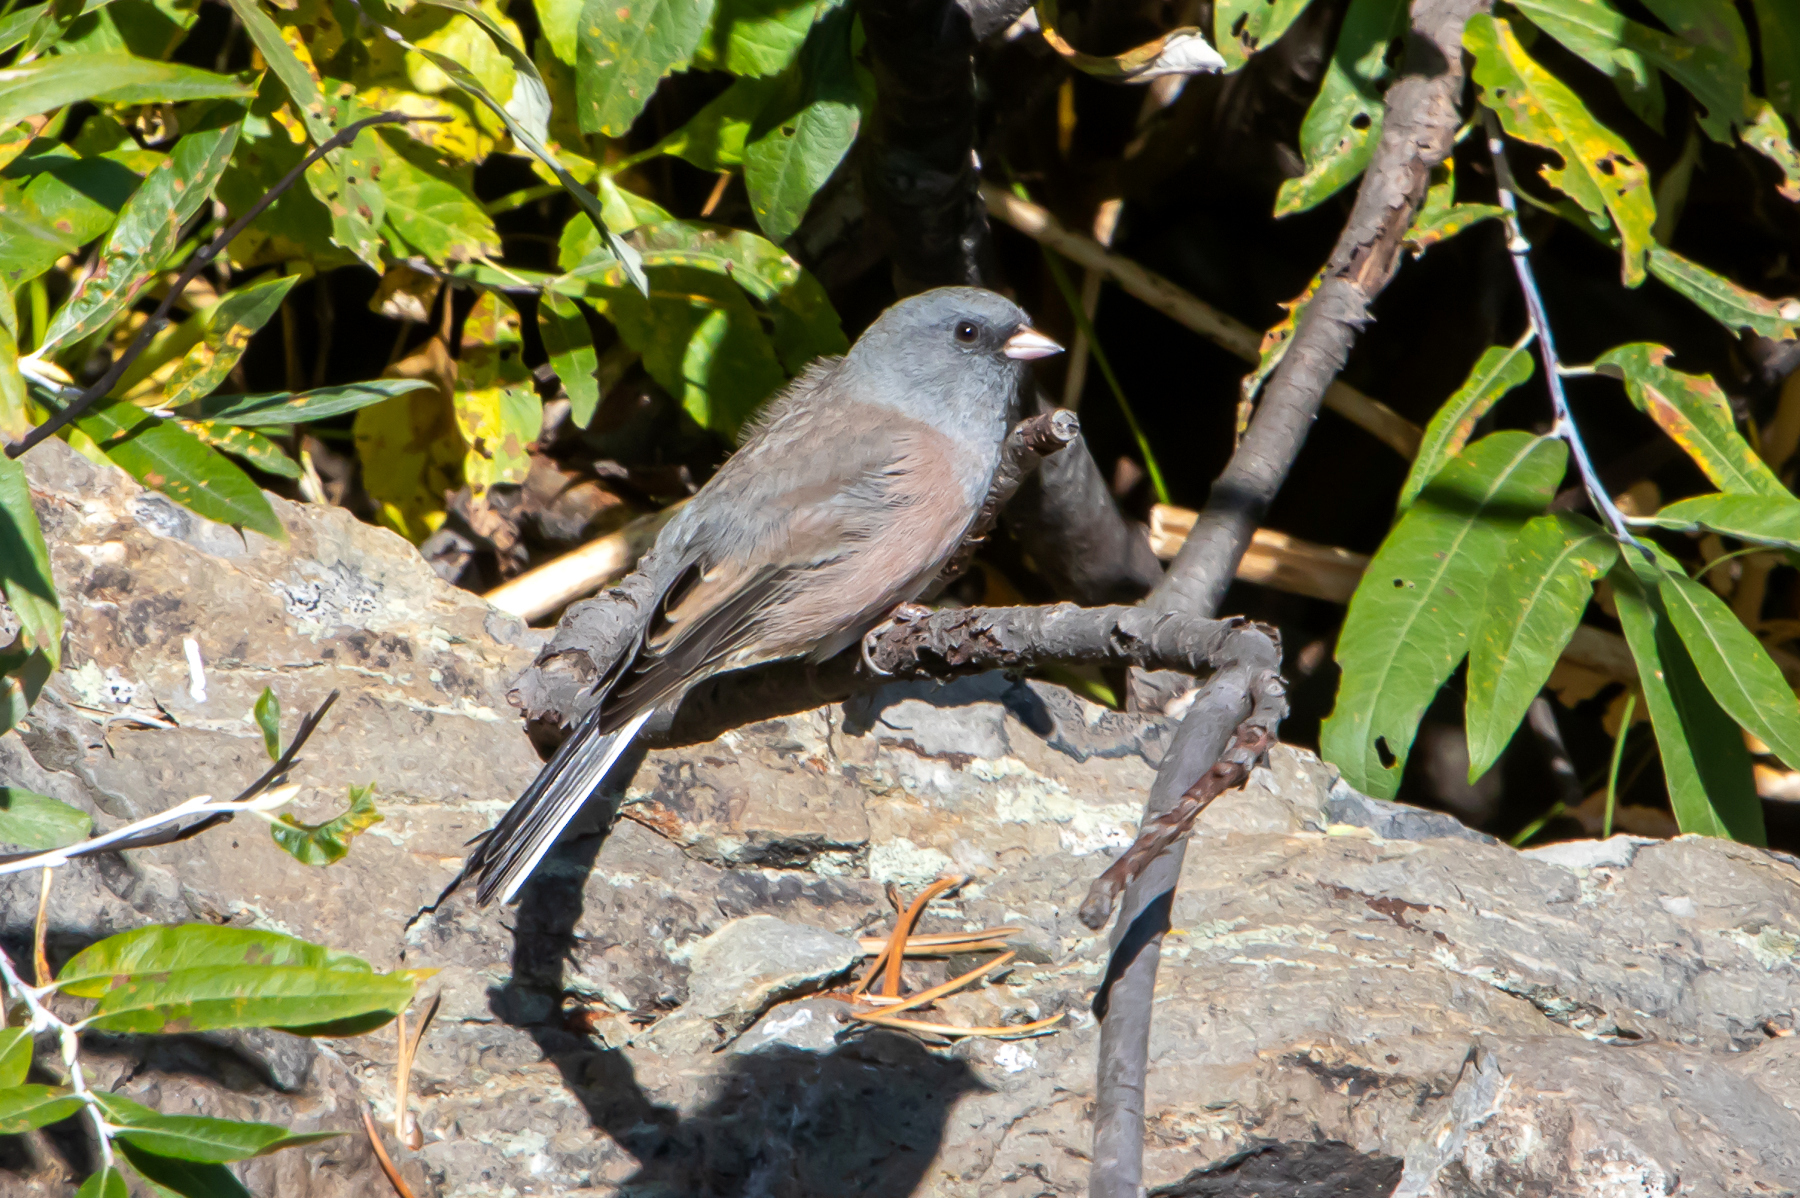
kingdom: Animalia
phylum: Chordata
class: Aves
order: Passeriformes
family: Passerellidae
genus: Junco
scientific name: Junco hyemalis
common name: Dark-eyed junco
